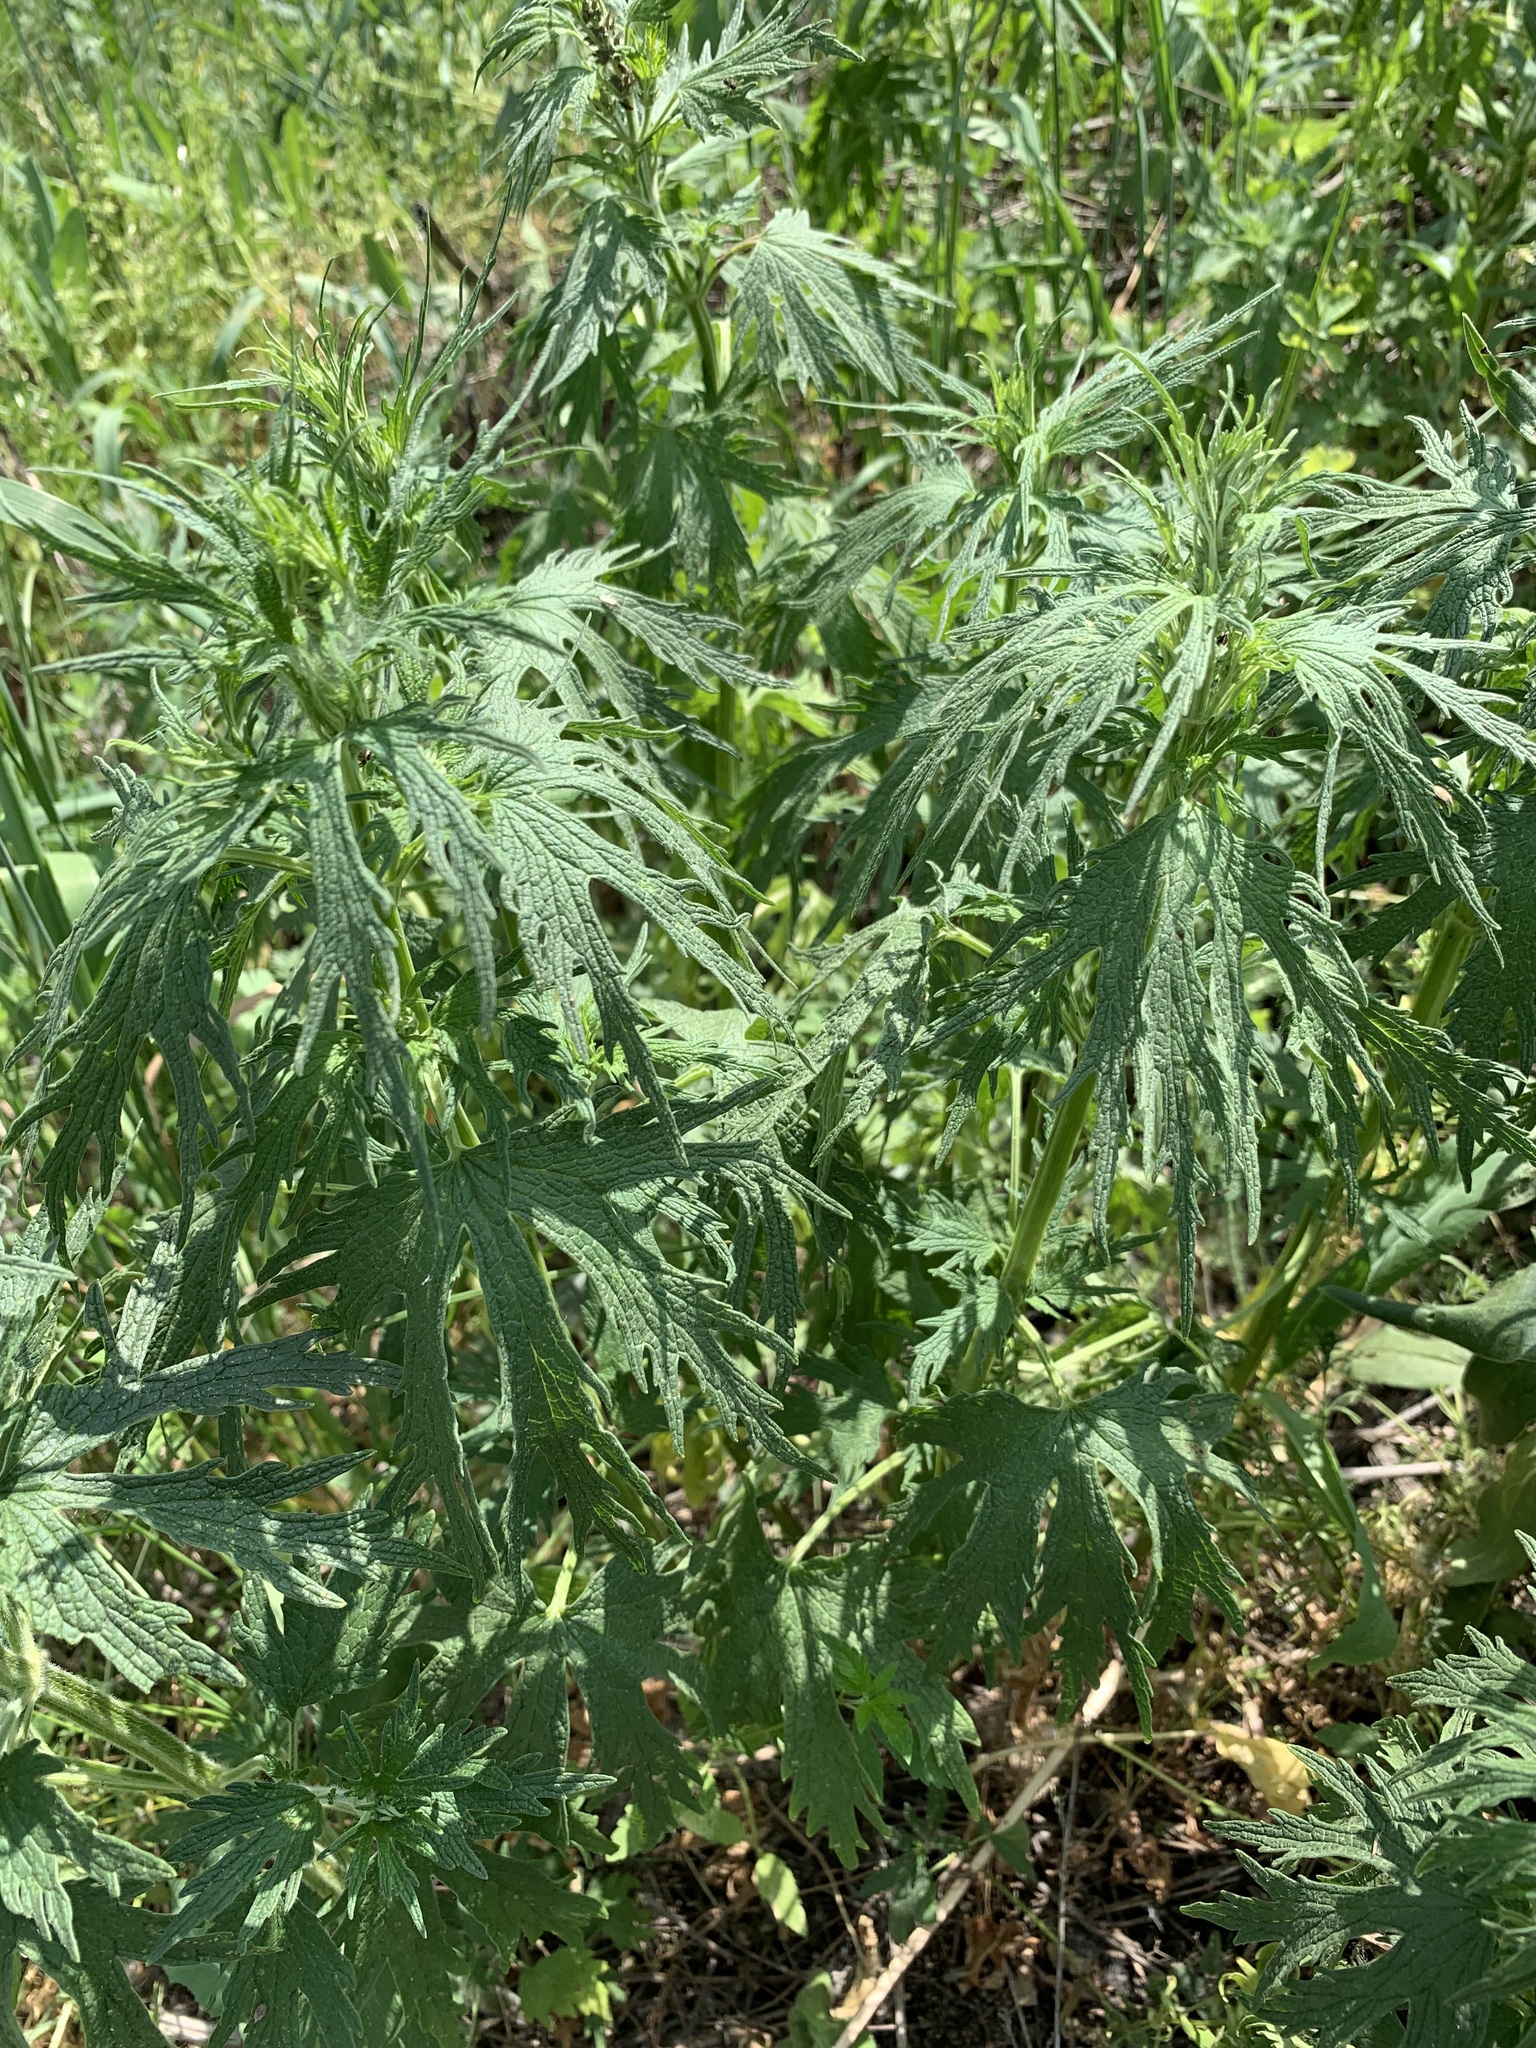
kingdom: Plantae
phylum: Tracheophyta
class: Magnoliopsida
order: Lamiales
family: Lamiaceae
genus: Leonurus
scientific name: Leonurus glaucescens
